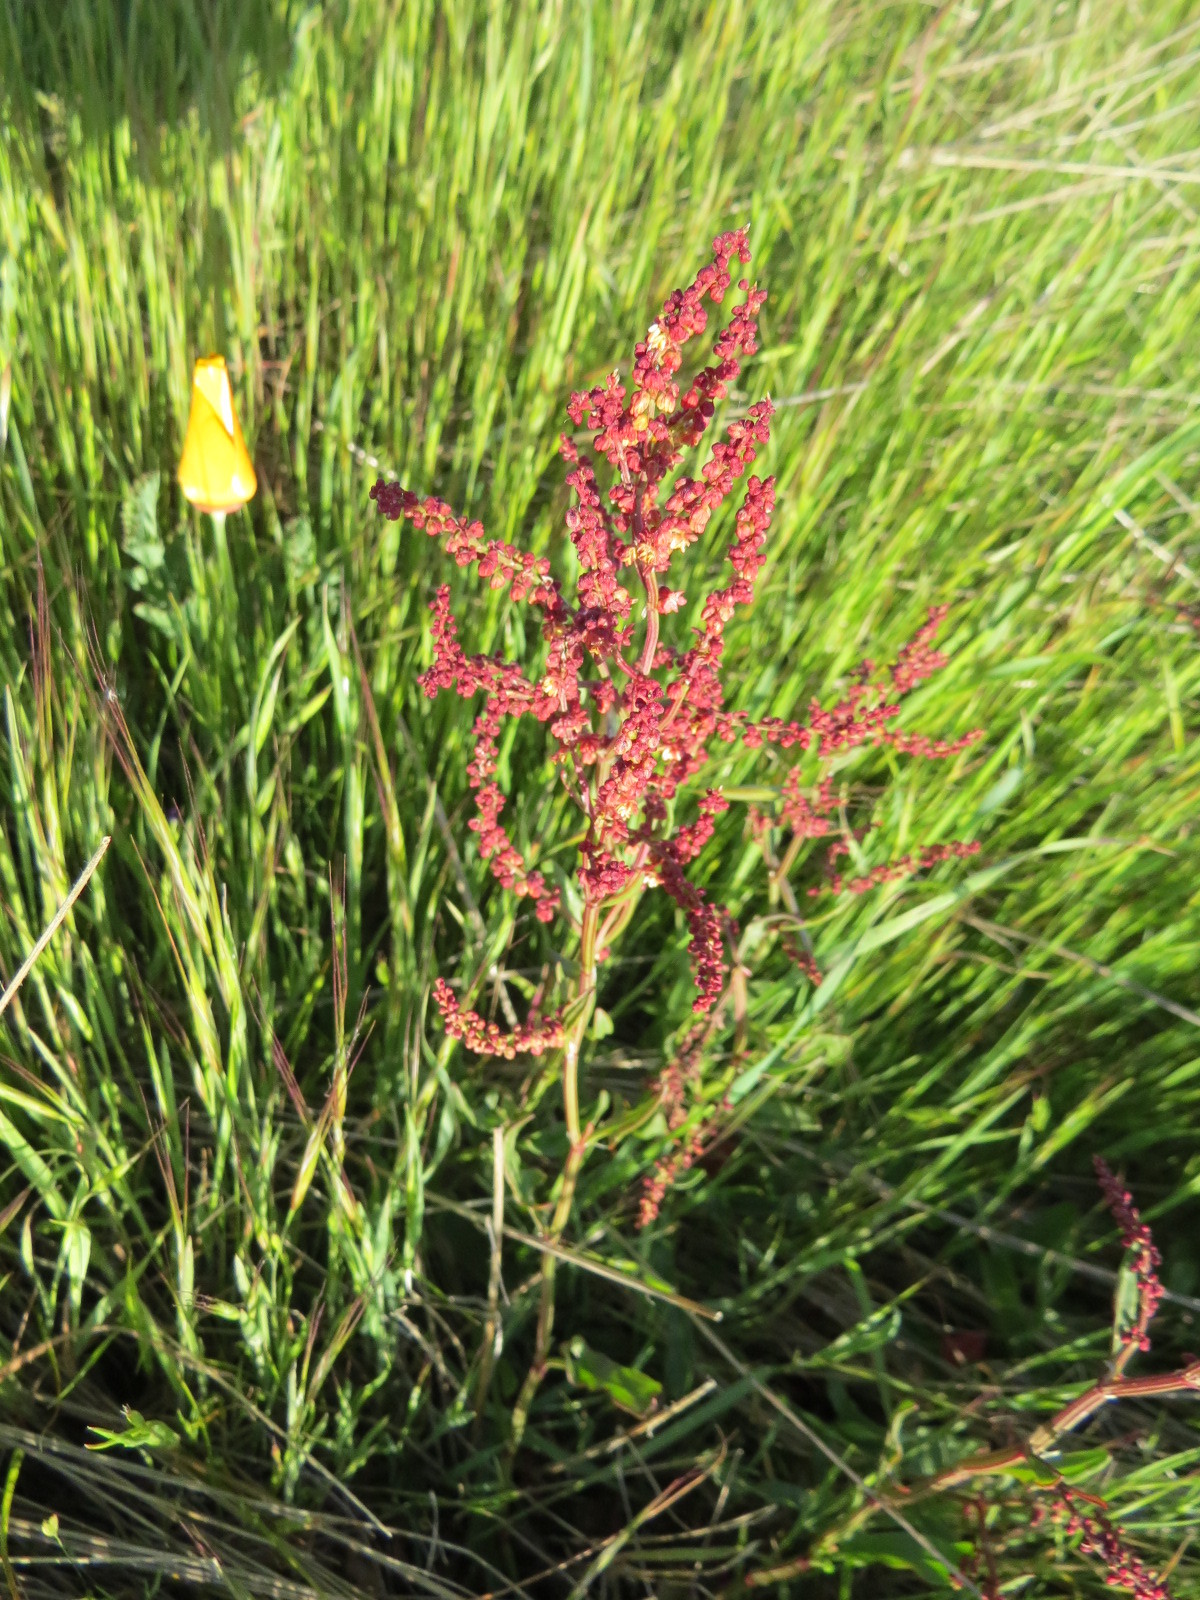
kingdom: Plantae
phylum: Tracheophyta
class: Magnoliopsida
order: Caryophyllales
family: Polygonaceae
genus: Rumex
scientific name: Rumex acetosella
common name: Common sheep sorrel
